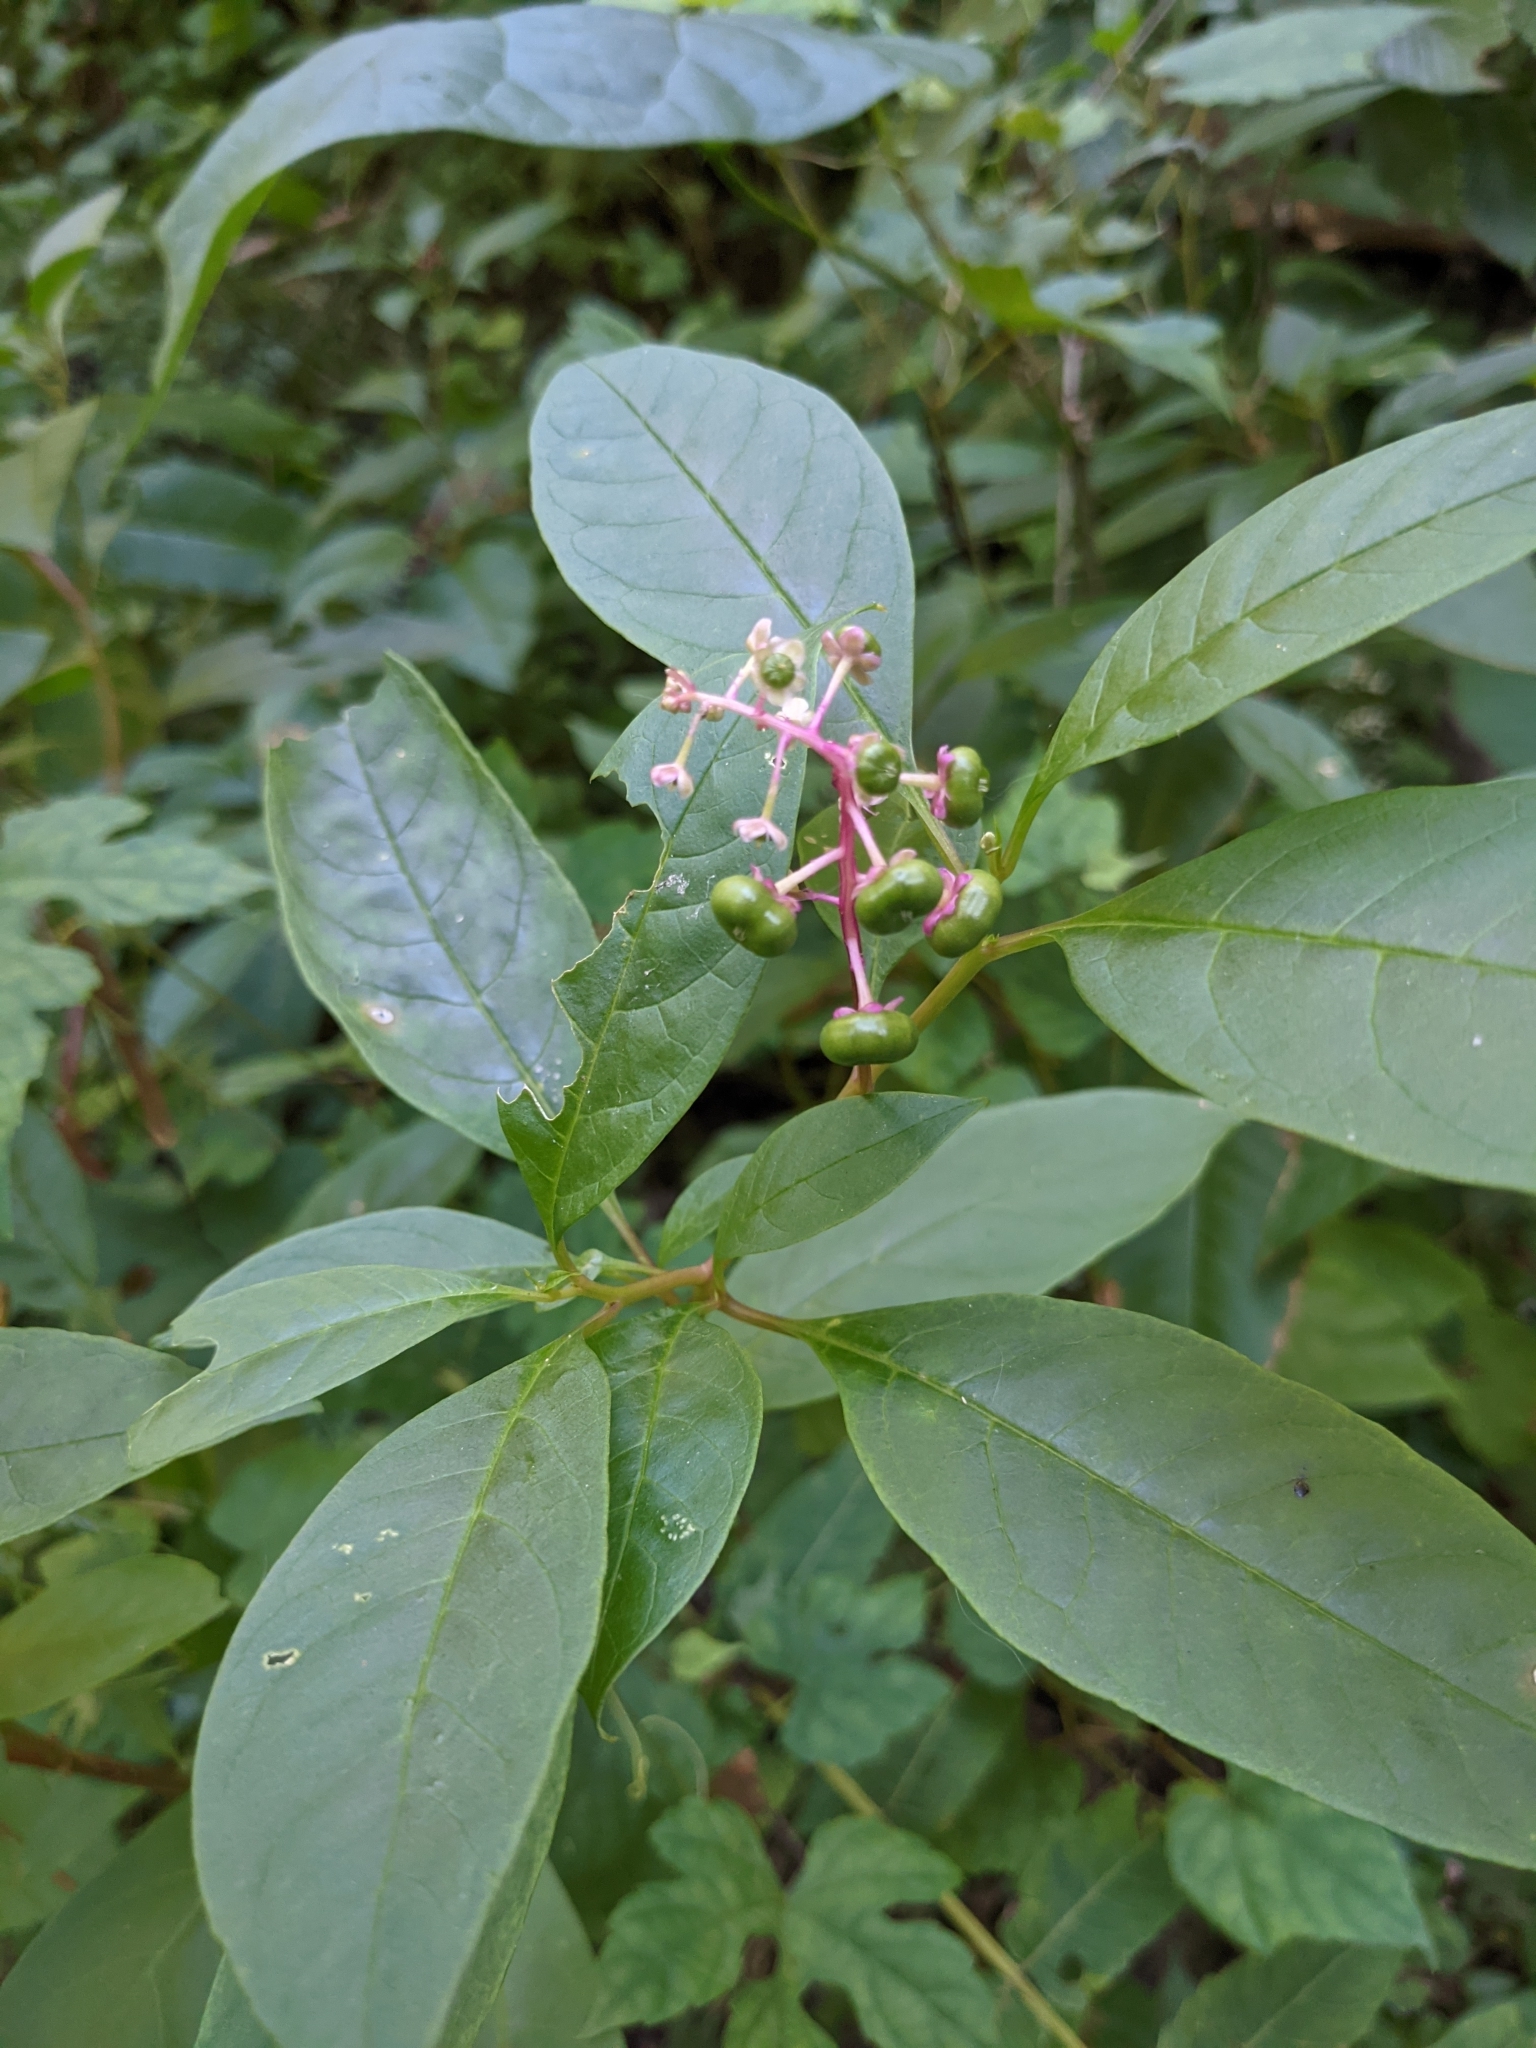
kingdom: Plantae
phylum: Tracheophyta
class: Magnoliopsida
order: Caryophyllales
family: Phytolaccaceae
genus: Phytolacca
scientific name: Phytolacca americana
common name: American pokeweed
